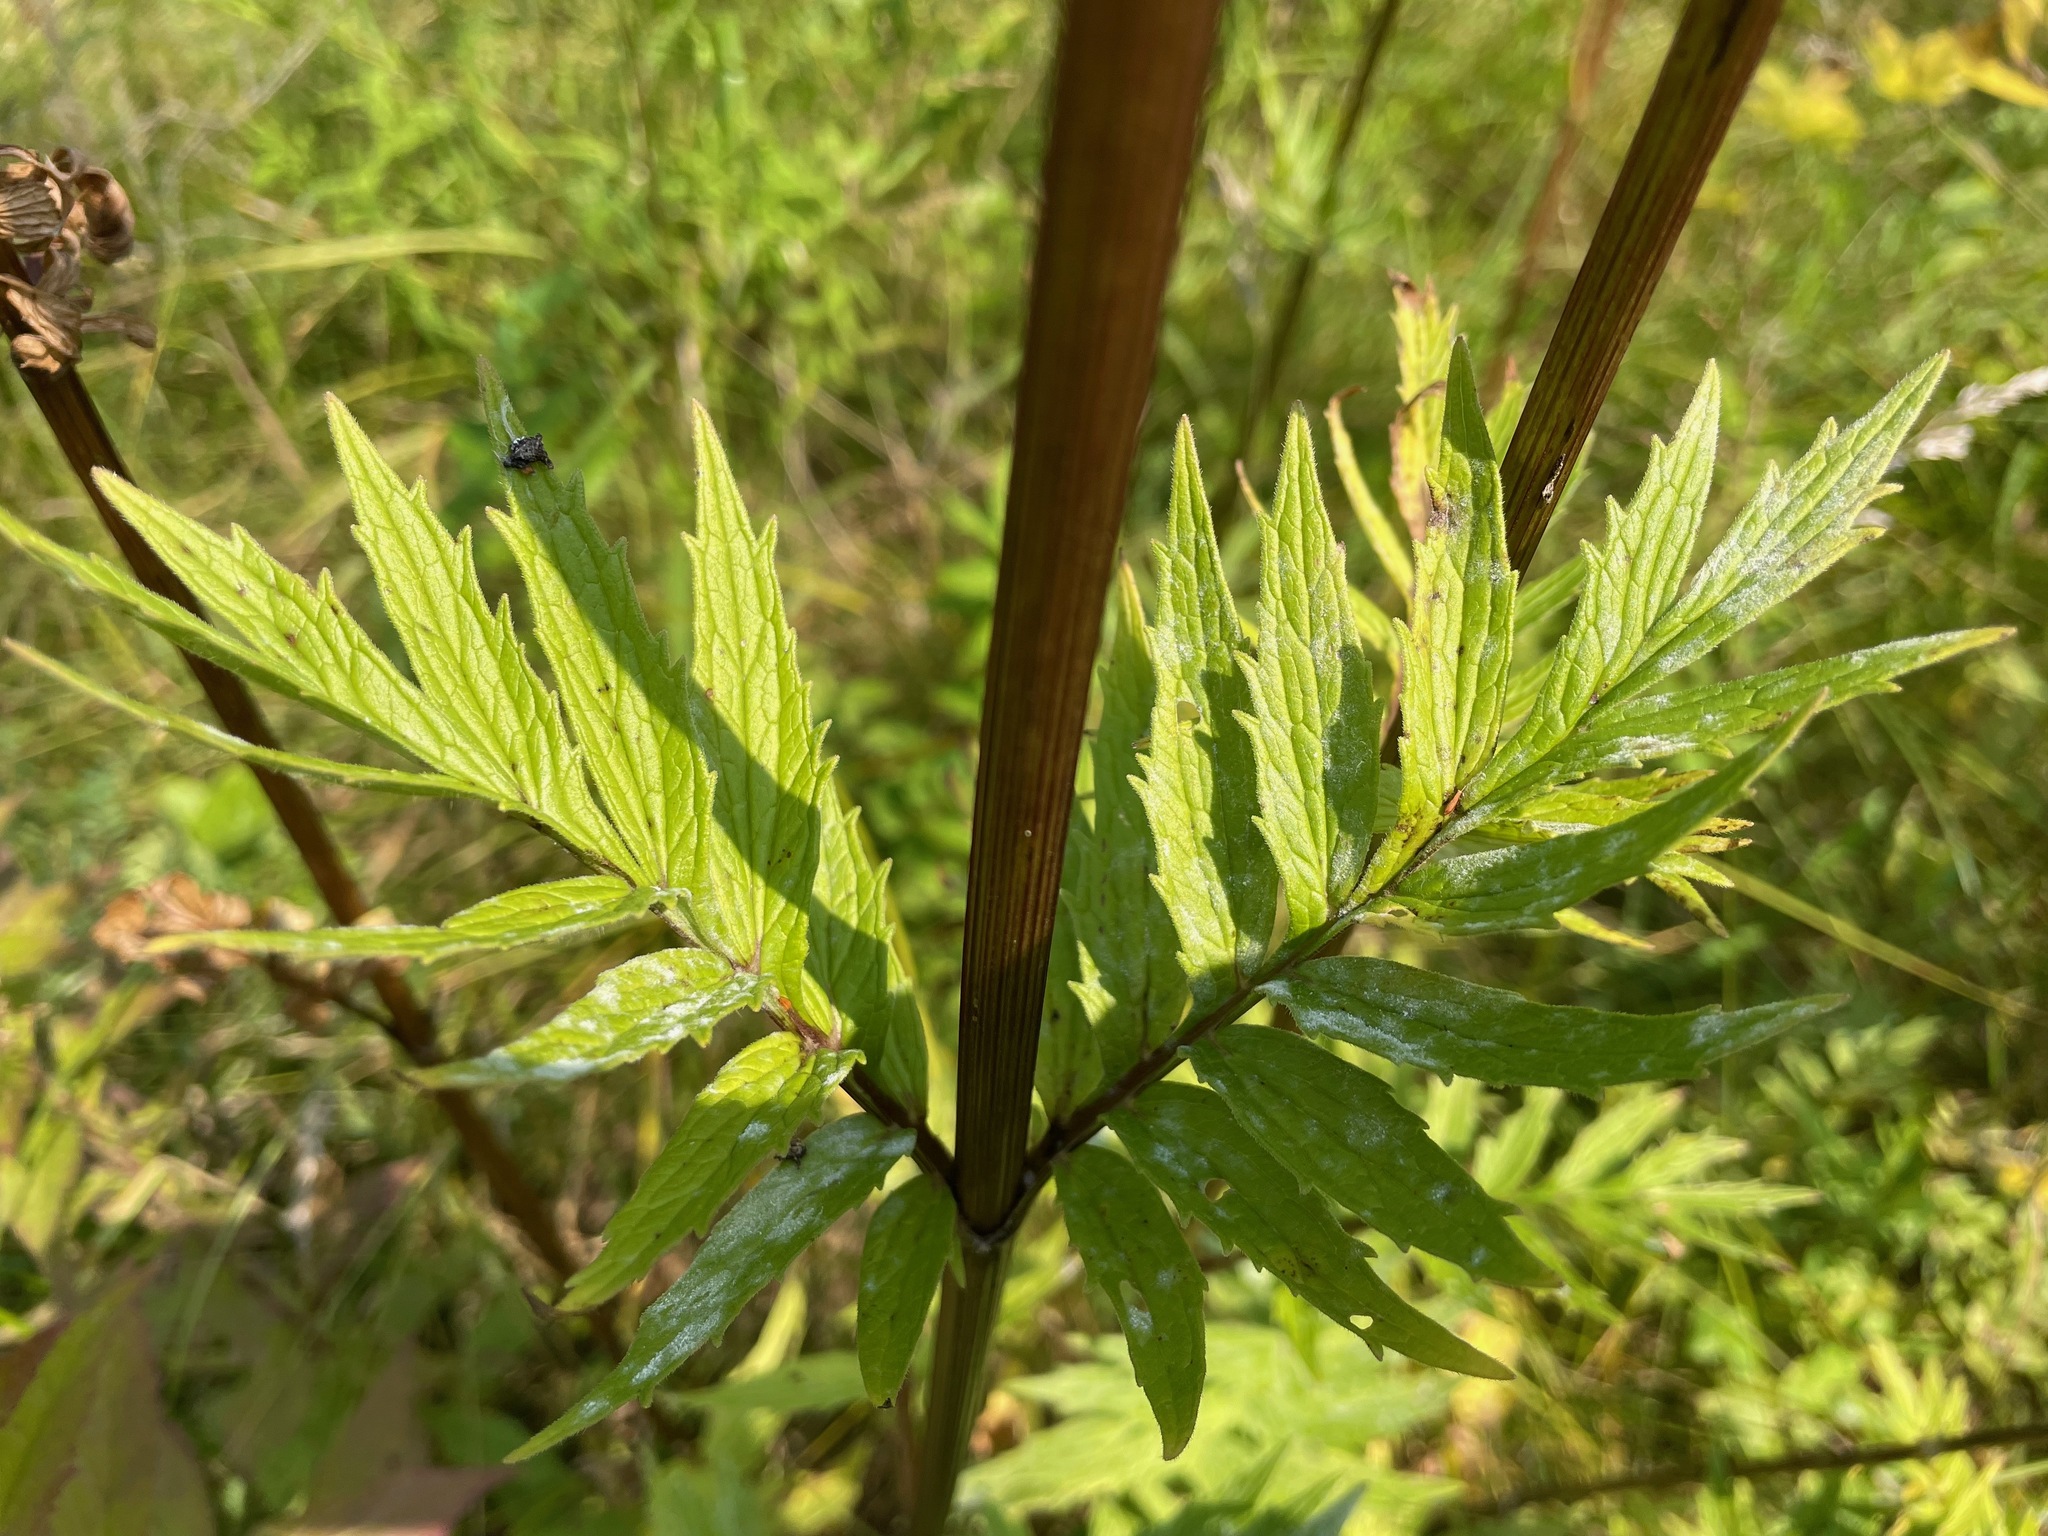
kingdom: Plantae
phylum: Tracheophyta
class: Magnoliopsida
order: Dipsacales
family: Caprifoliaceae
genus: Valeriana
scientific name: Valeriana officinalis
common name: Common valerian
